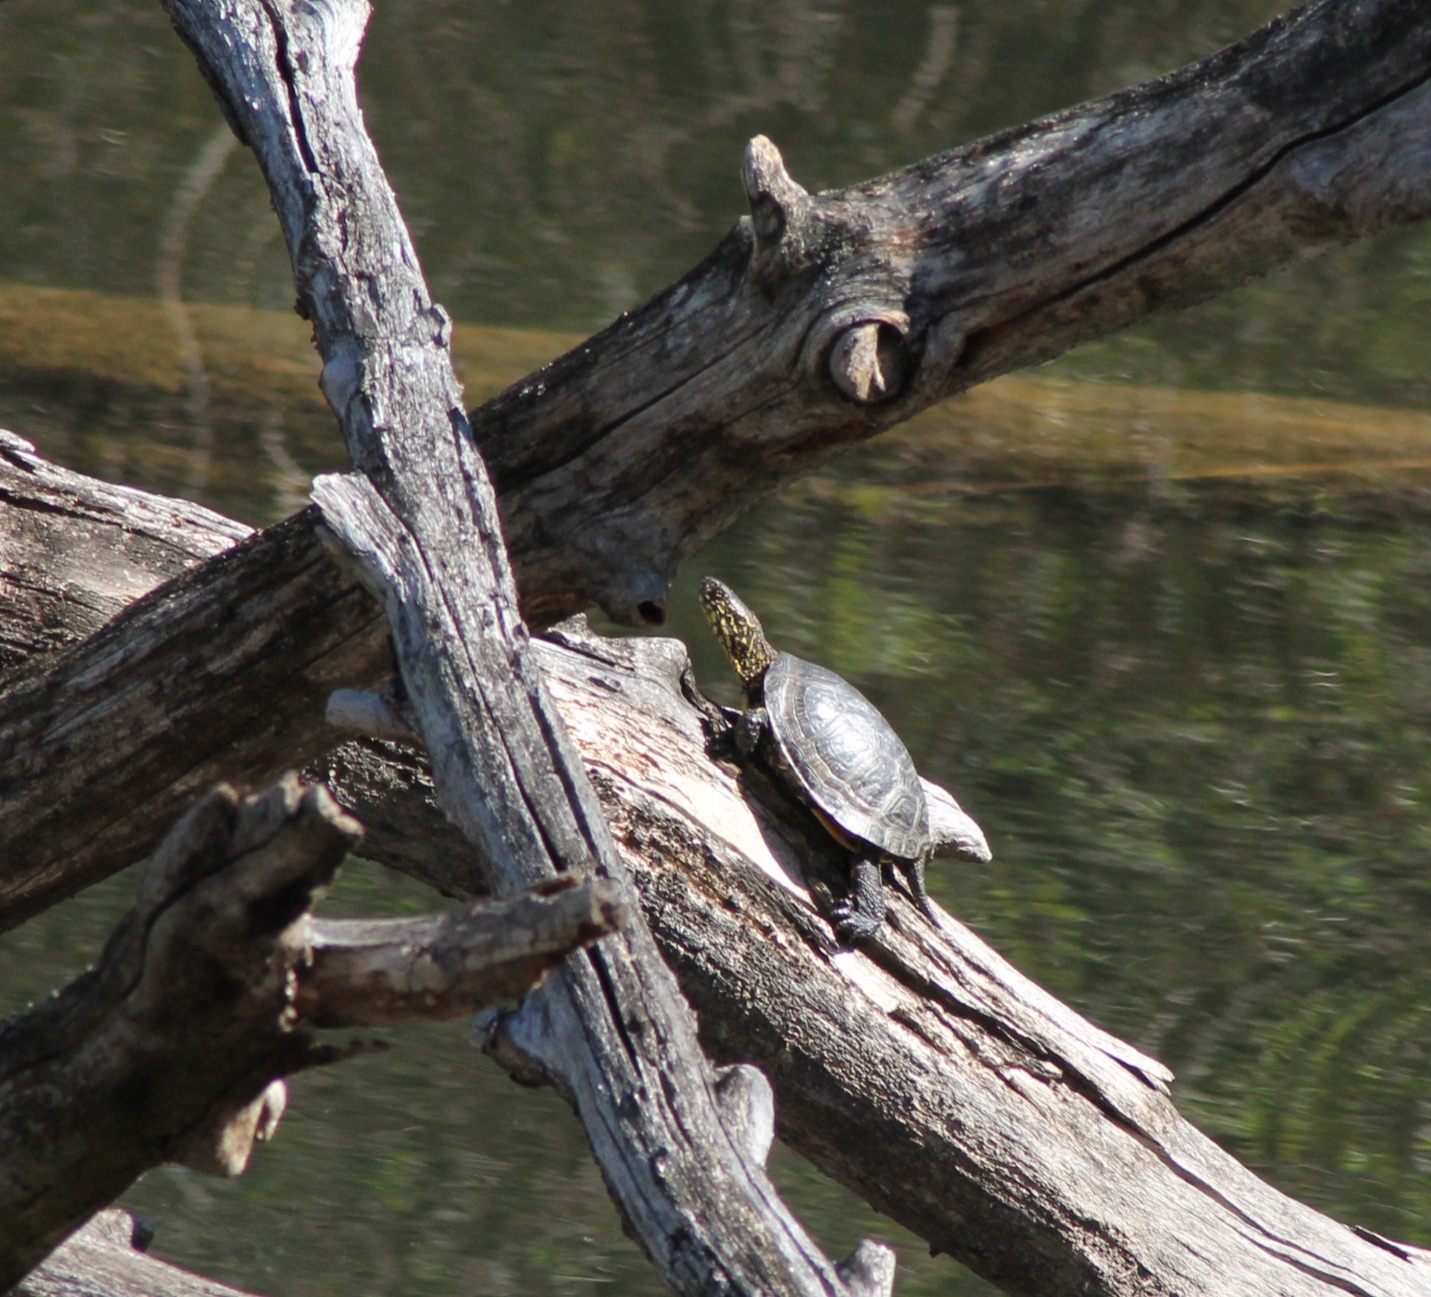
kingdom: Animalia
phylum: Chordata
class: Testudines
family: Emydidae
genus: Emys
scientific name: Emys orbicularis
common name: European pond turtle
